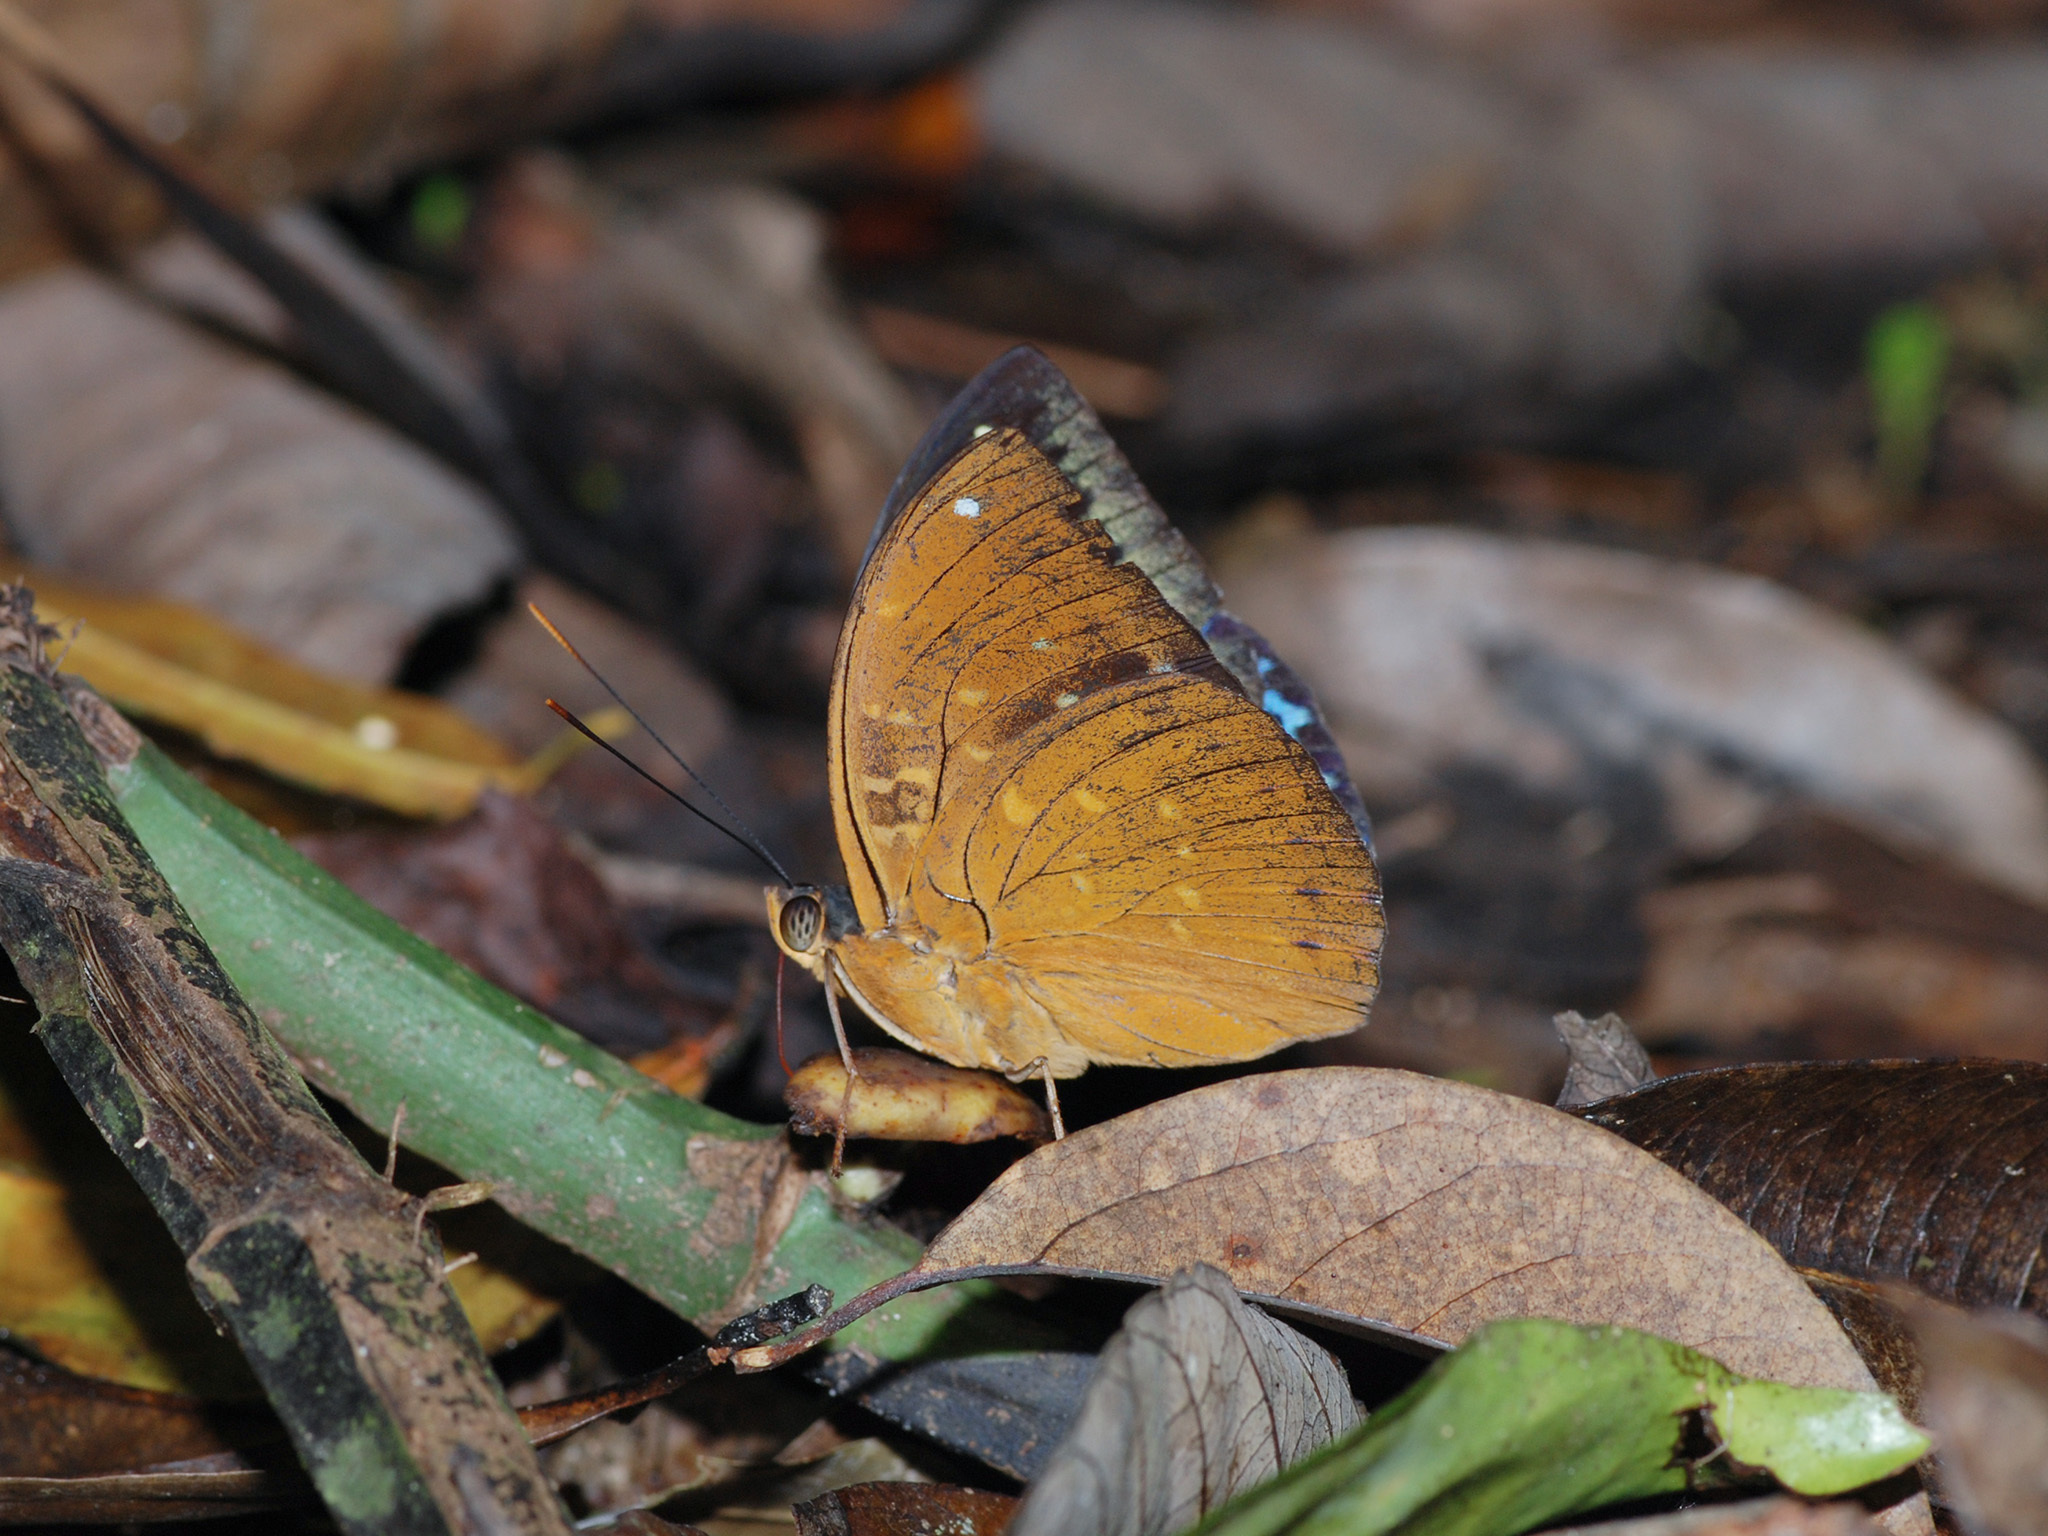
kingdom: Animalia
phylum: Arthropoda
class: Insecta
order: Lepidoptera
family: Nymphalidae
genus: Lexias
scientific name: Lexias pardalis
